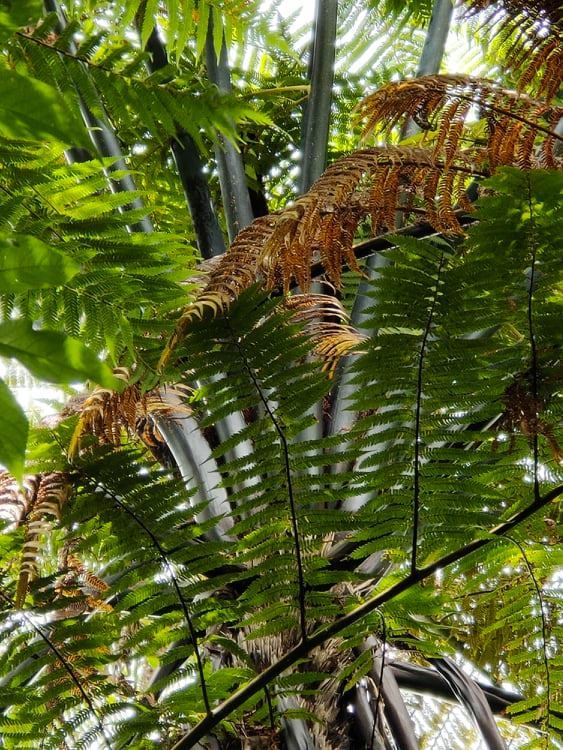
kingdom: Plantae
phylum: Tracheophyta
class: Polypodiopsida
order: Cyatheales
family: Cyatheaceae
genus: Sphaeropteris
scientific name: Sphaeropteris medullaris
